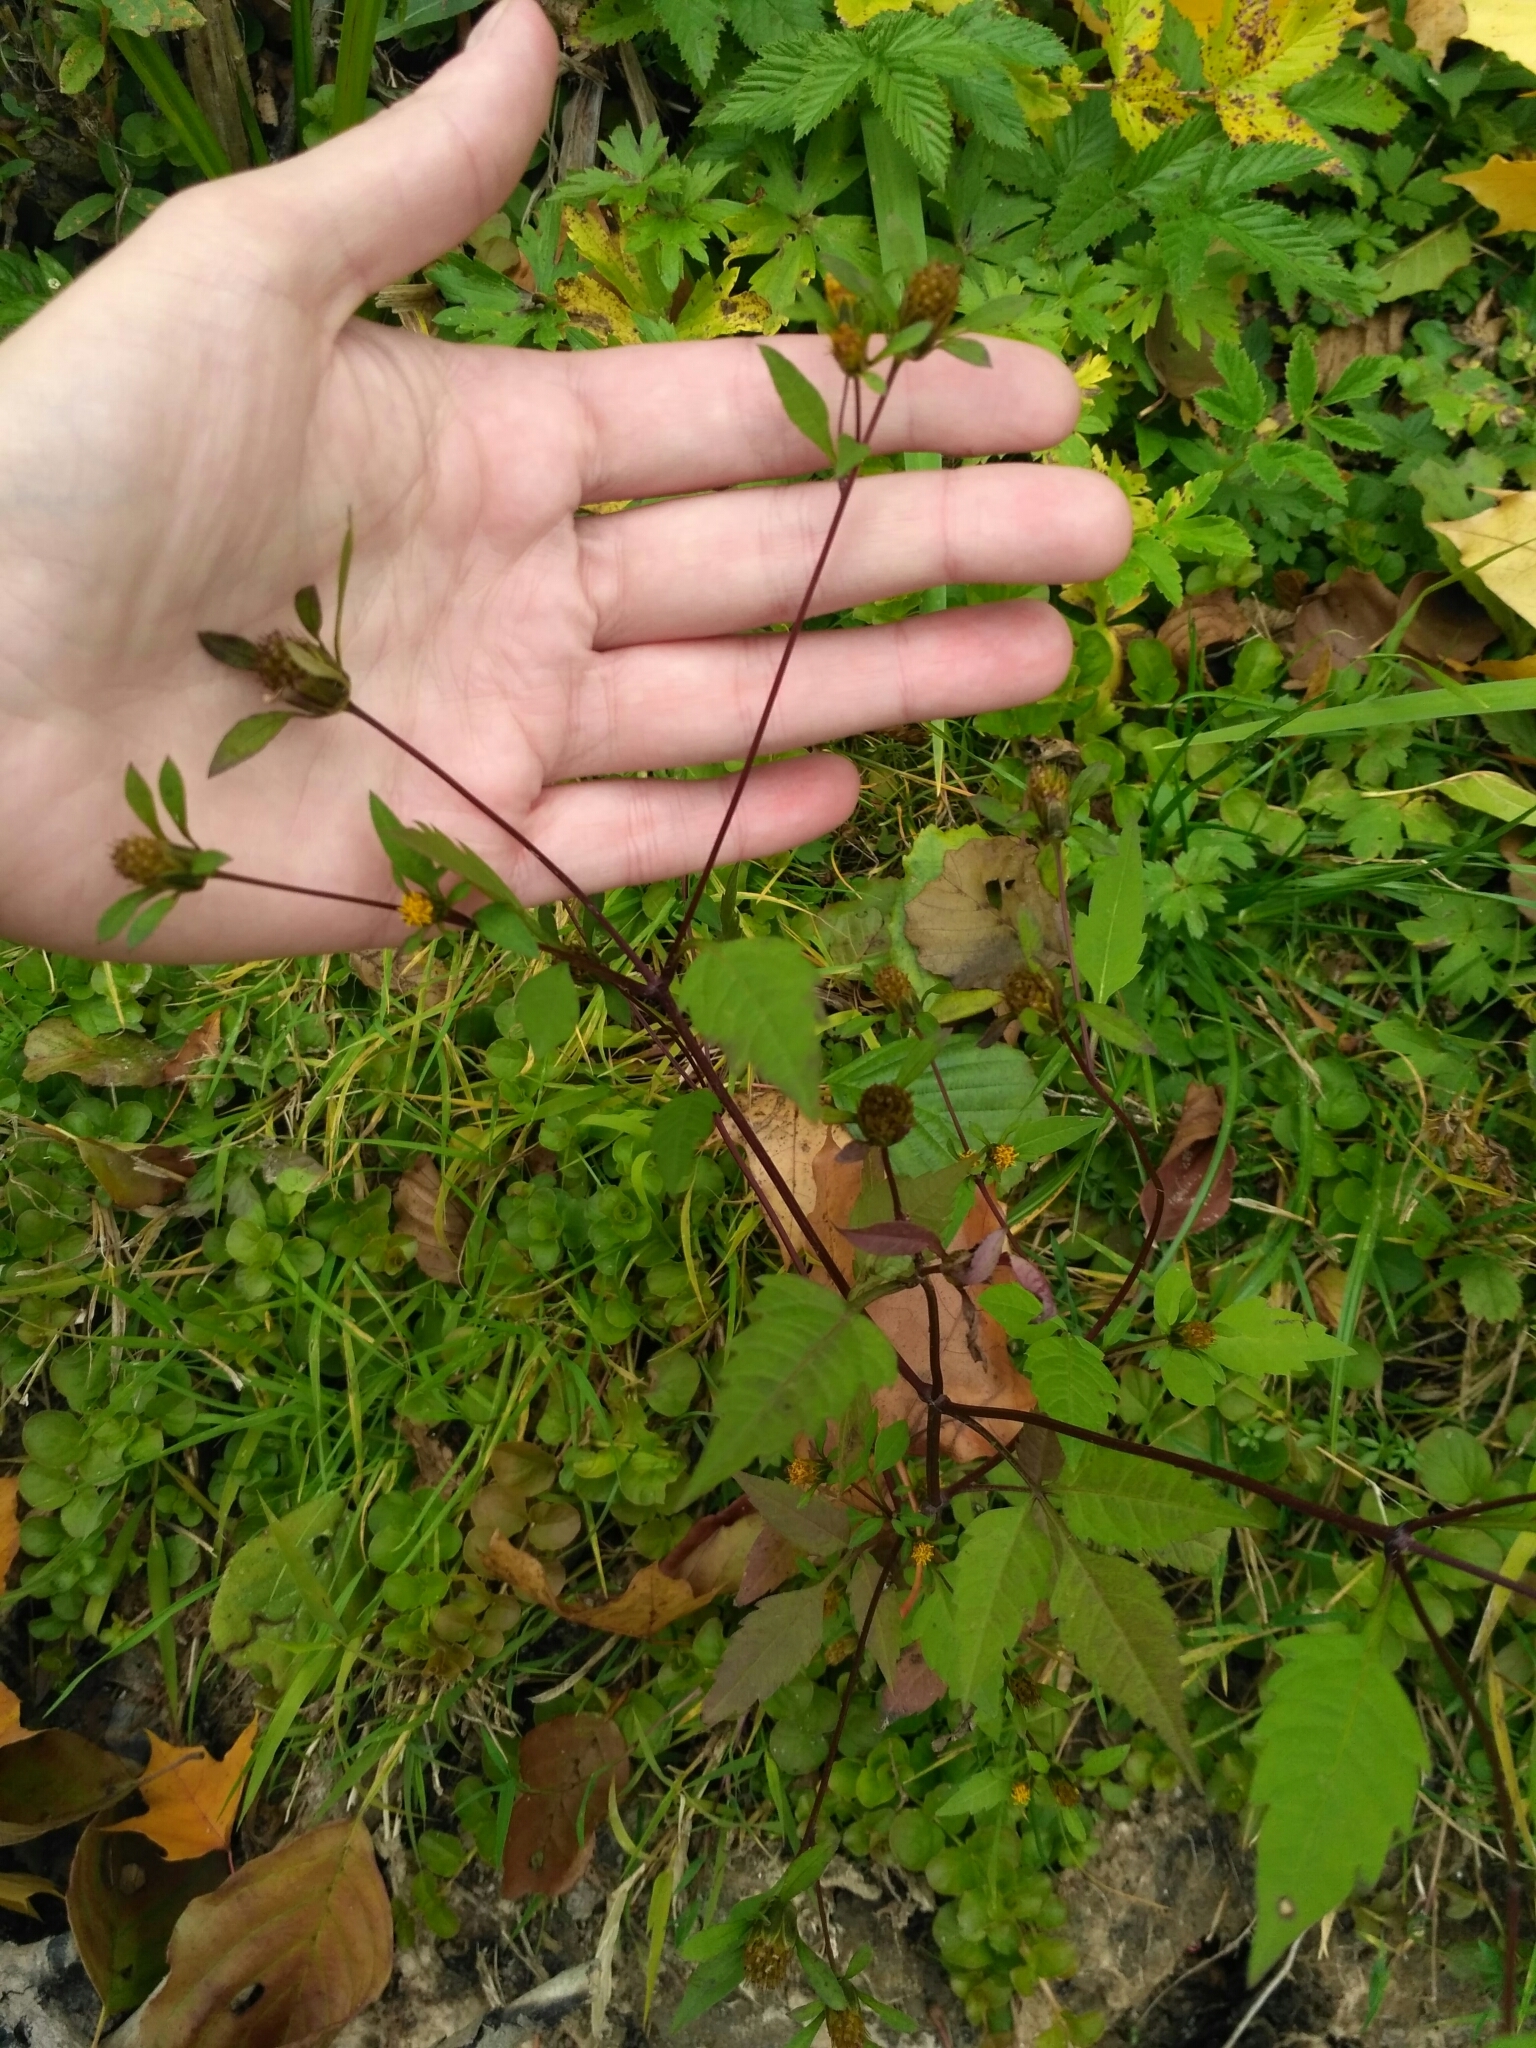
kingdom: Plantae
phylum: Tracheophyta
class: Magnoliopsida
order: Asterales
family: Asteraceae
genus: Bidens
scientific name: Bidens frondosa
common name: Beggarticks
